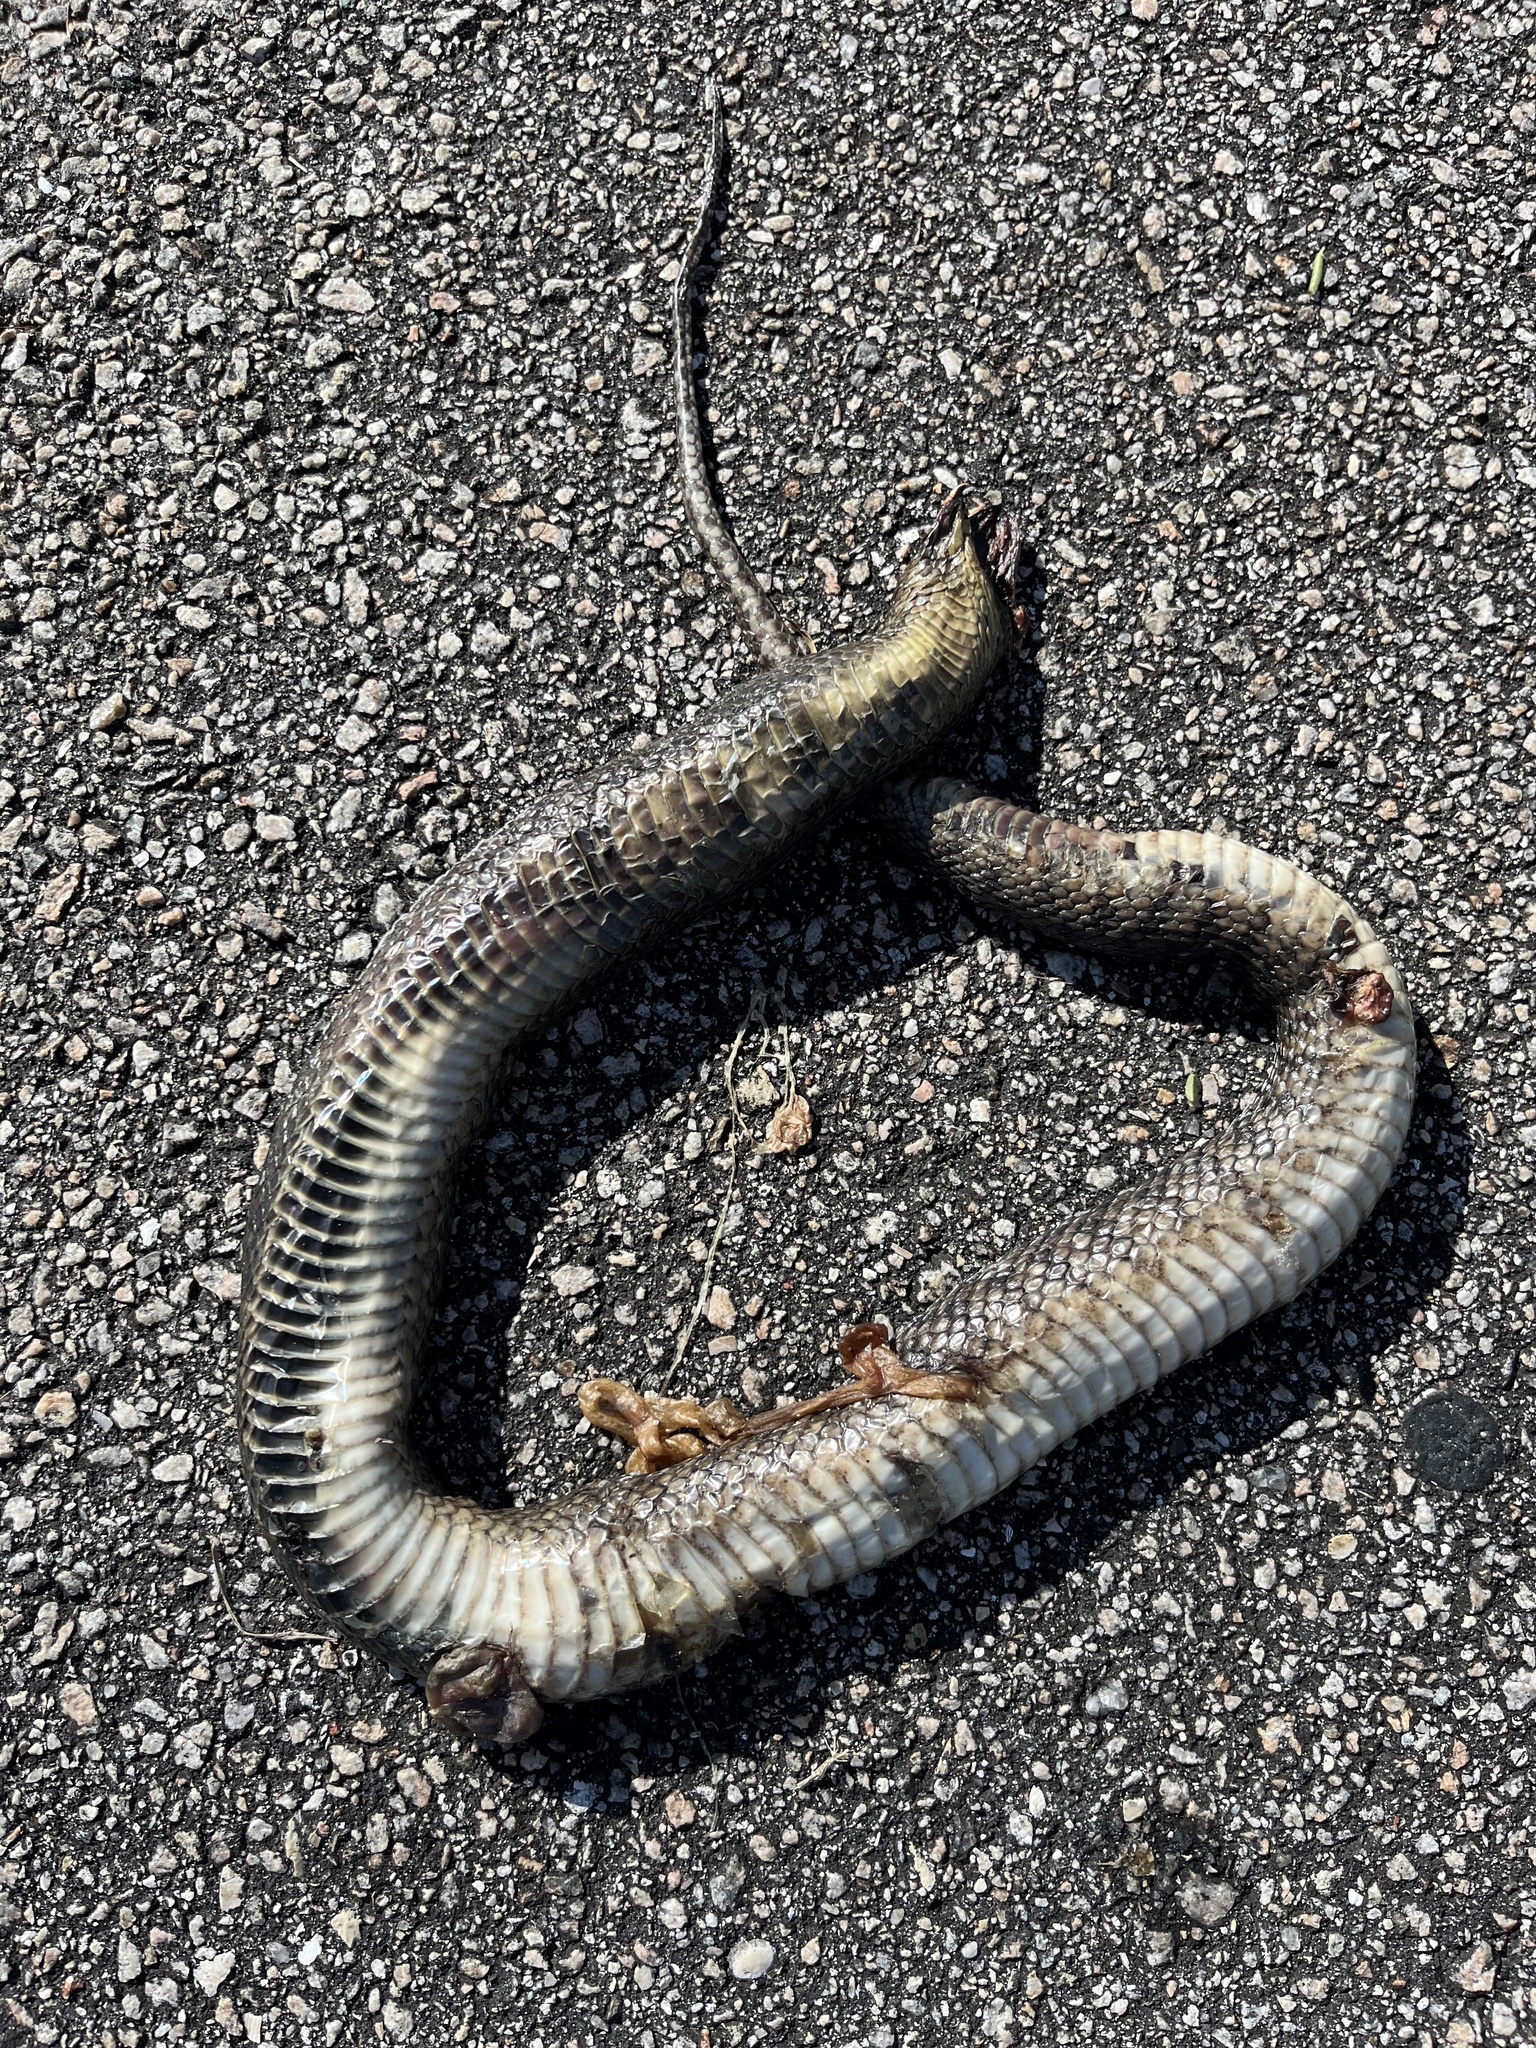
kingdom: Animalia
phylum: Chordata
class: Squamata
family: Colubridae
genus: Nerodia
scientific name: Nerodia floridana
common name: Florida green watersnake
